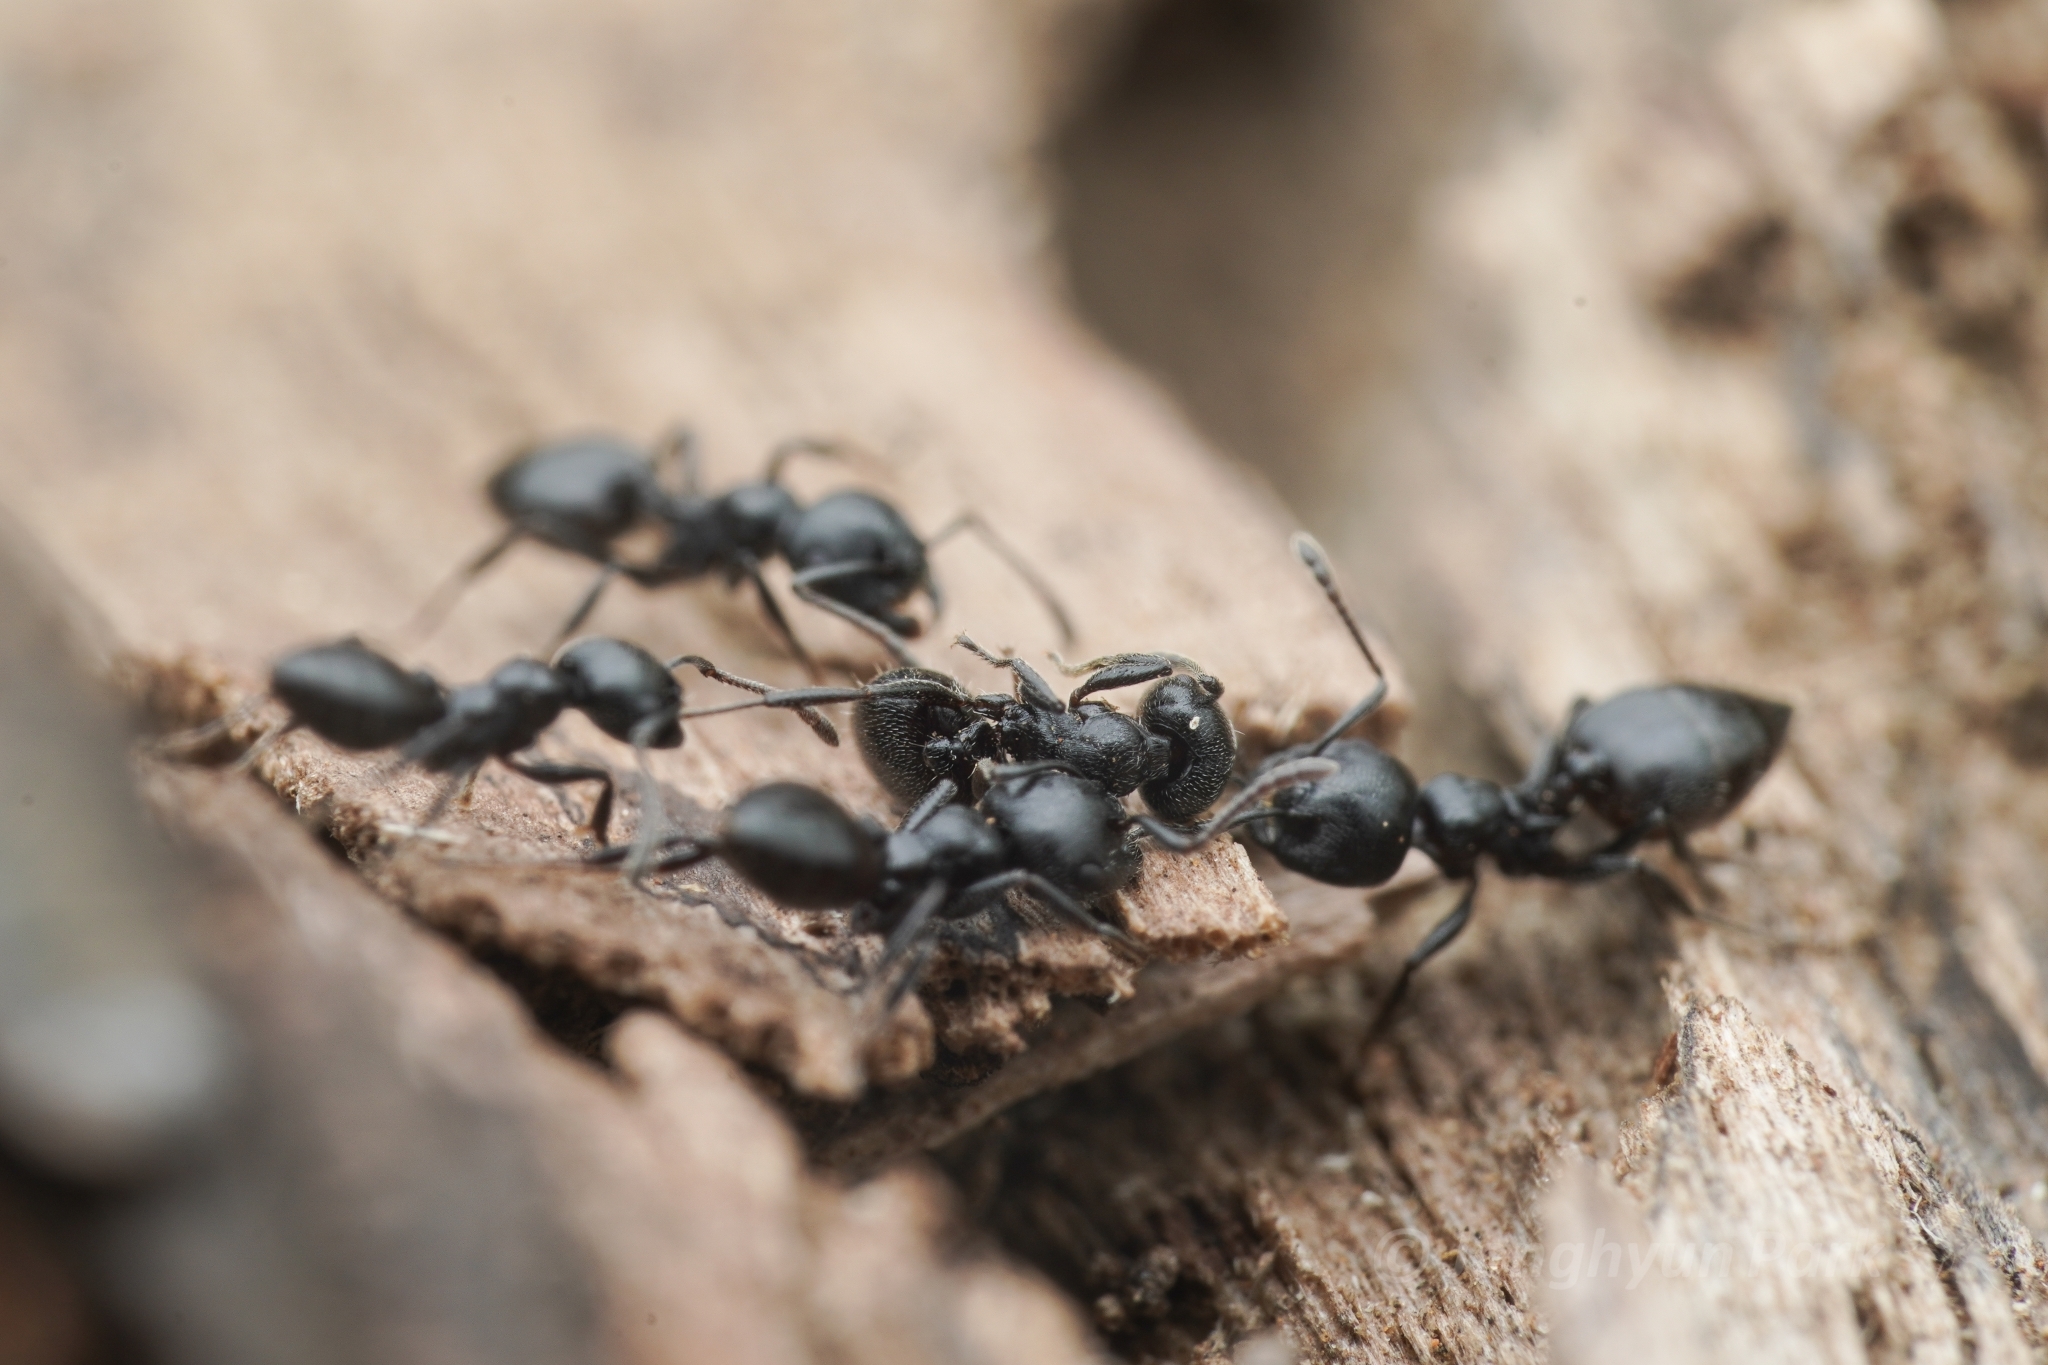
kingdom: Animalia
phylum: Arthropoda
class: Insecta
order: Hymenoptera
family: Formicidae
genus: Crematogaster
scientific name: Crematogaster peringueyi
